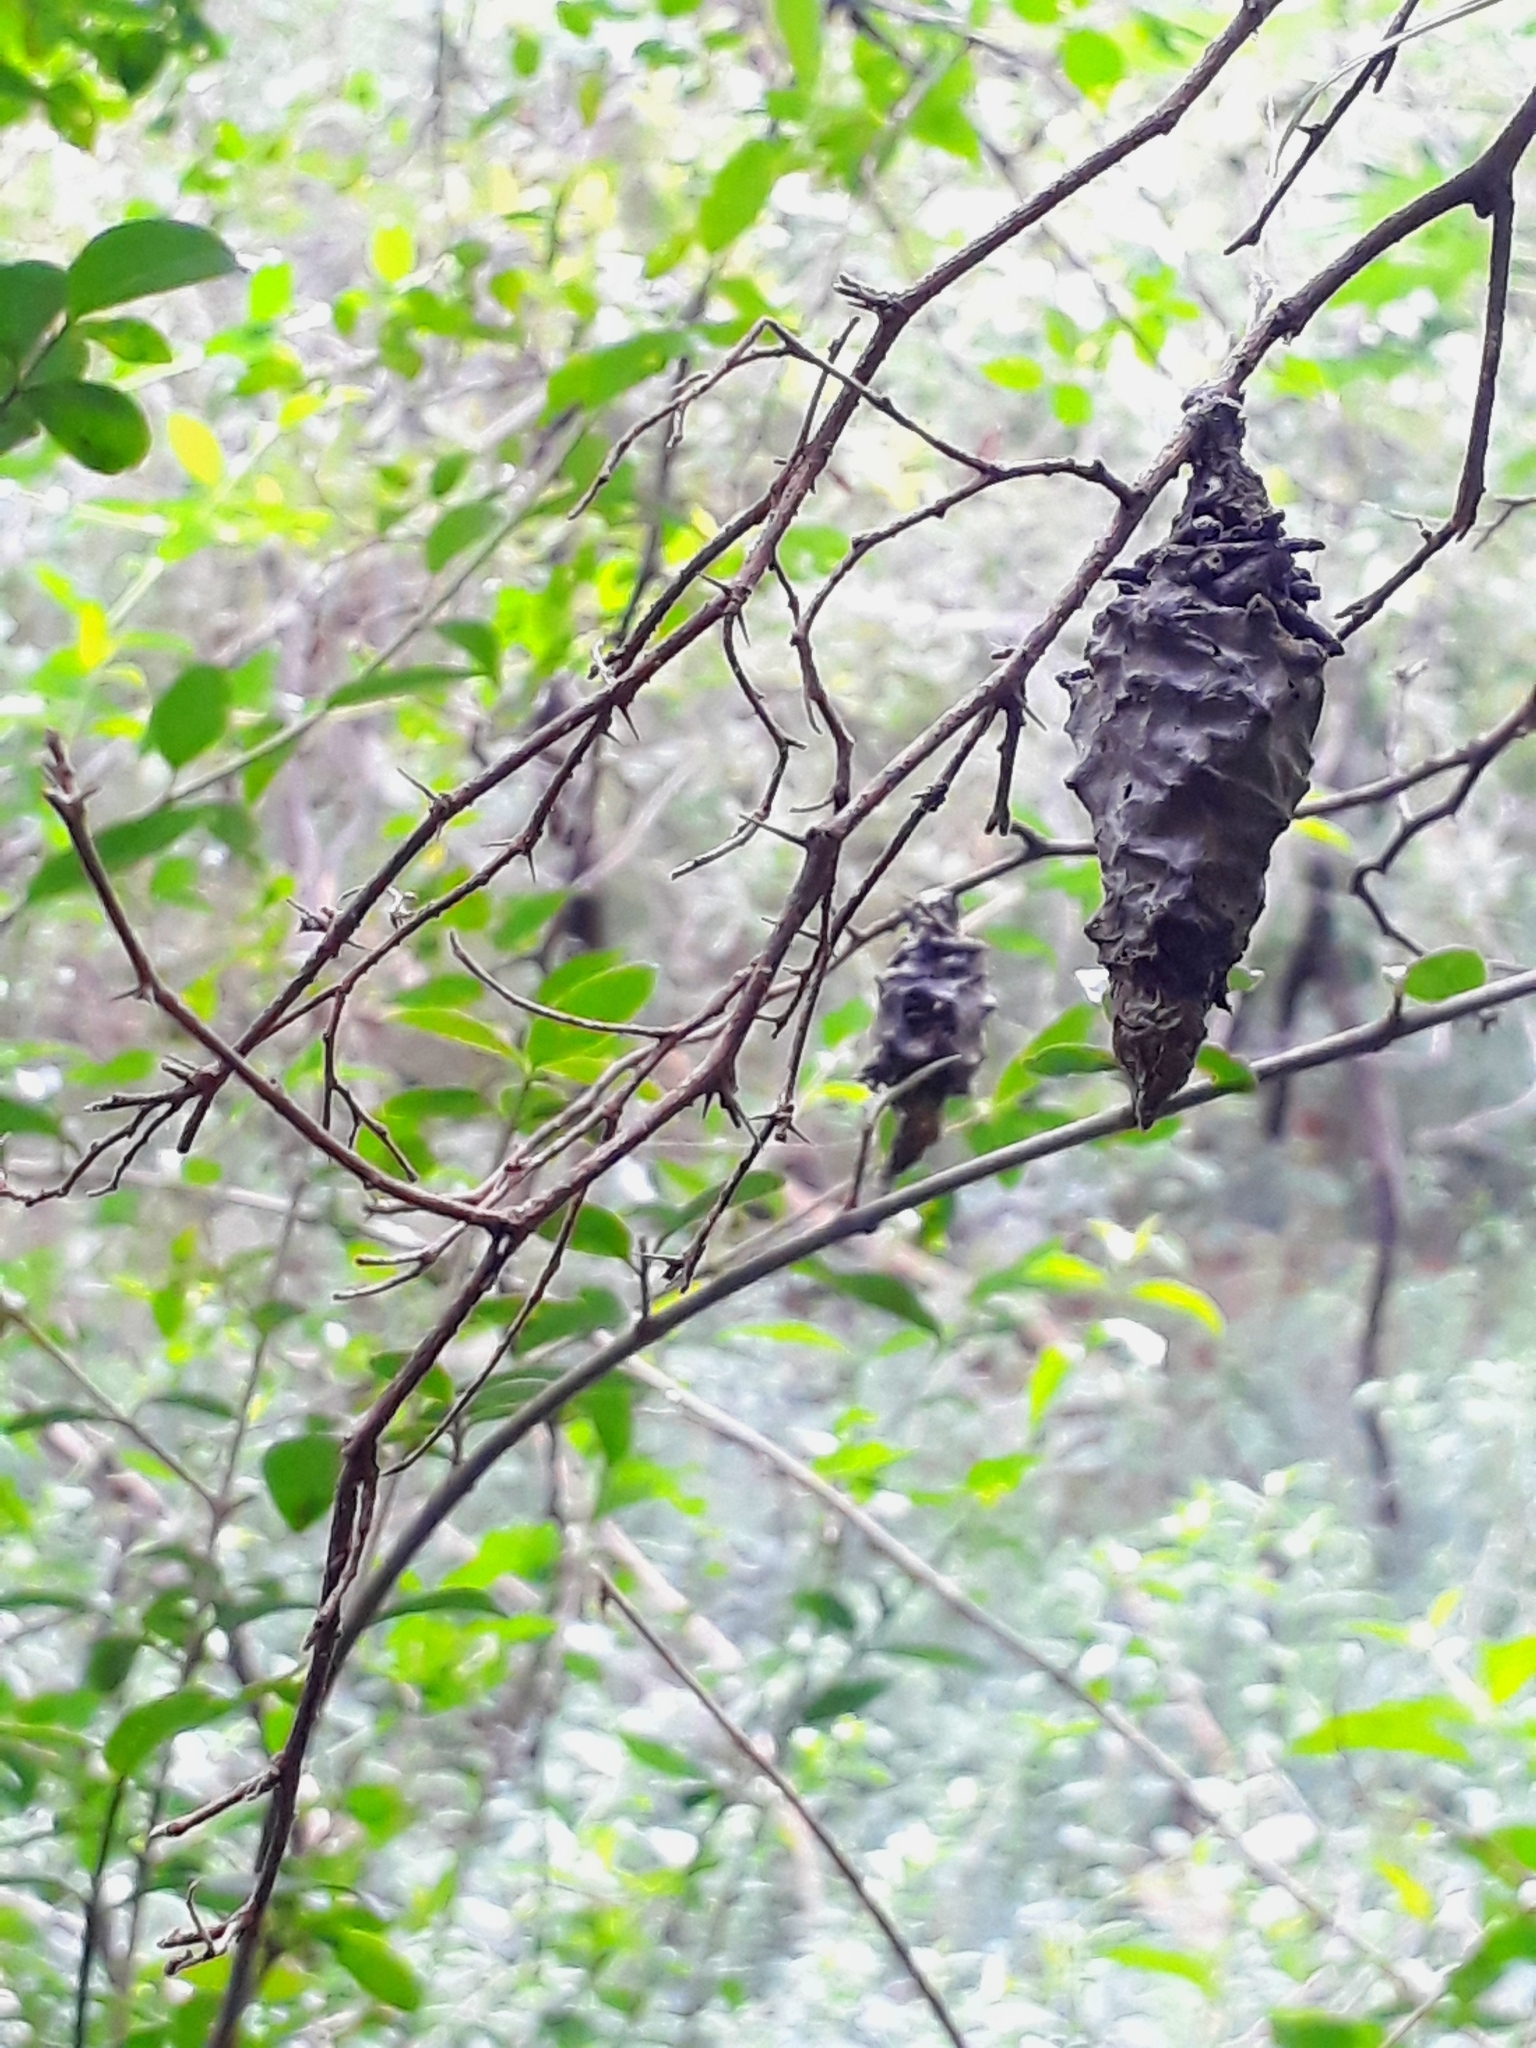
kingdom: Animalia
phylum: Arthropoda
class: Insecta
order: Lepidoptera
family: Psychidae
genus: Oiketicus
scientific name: Oiketicus
